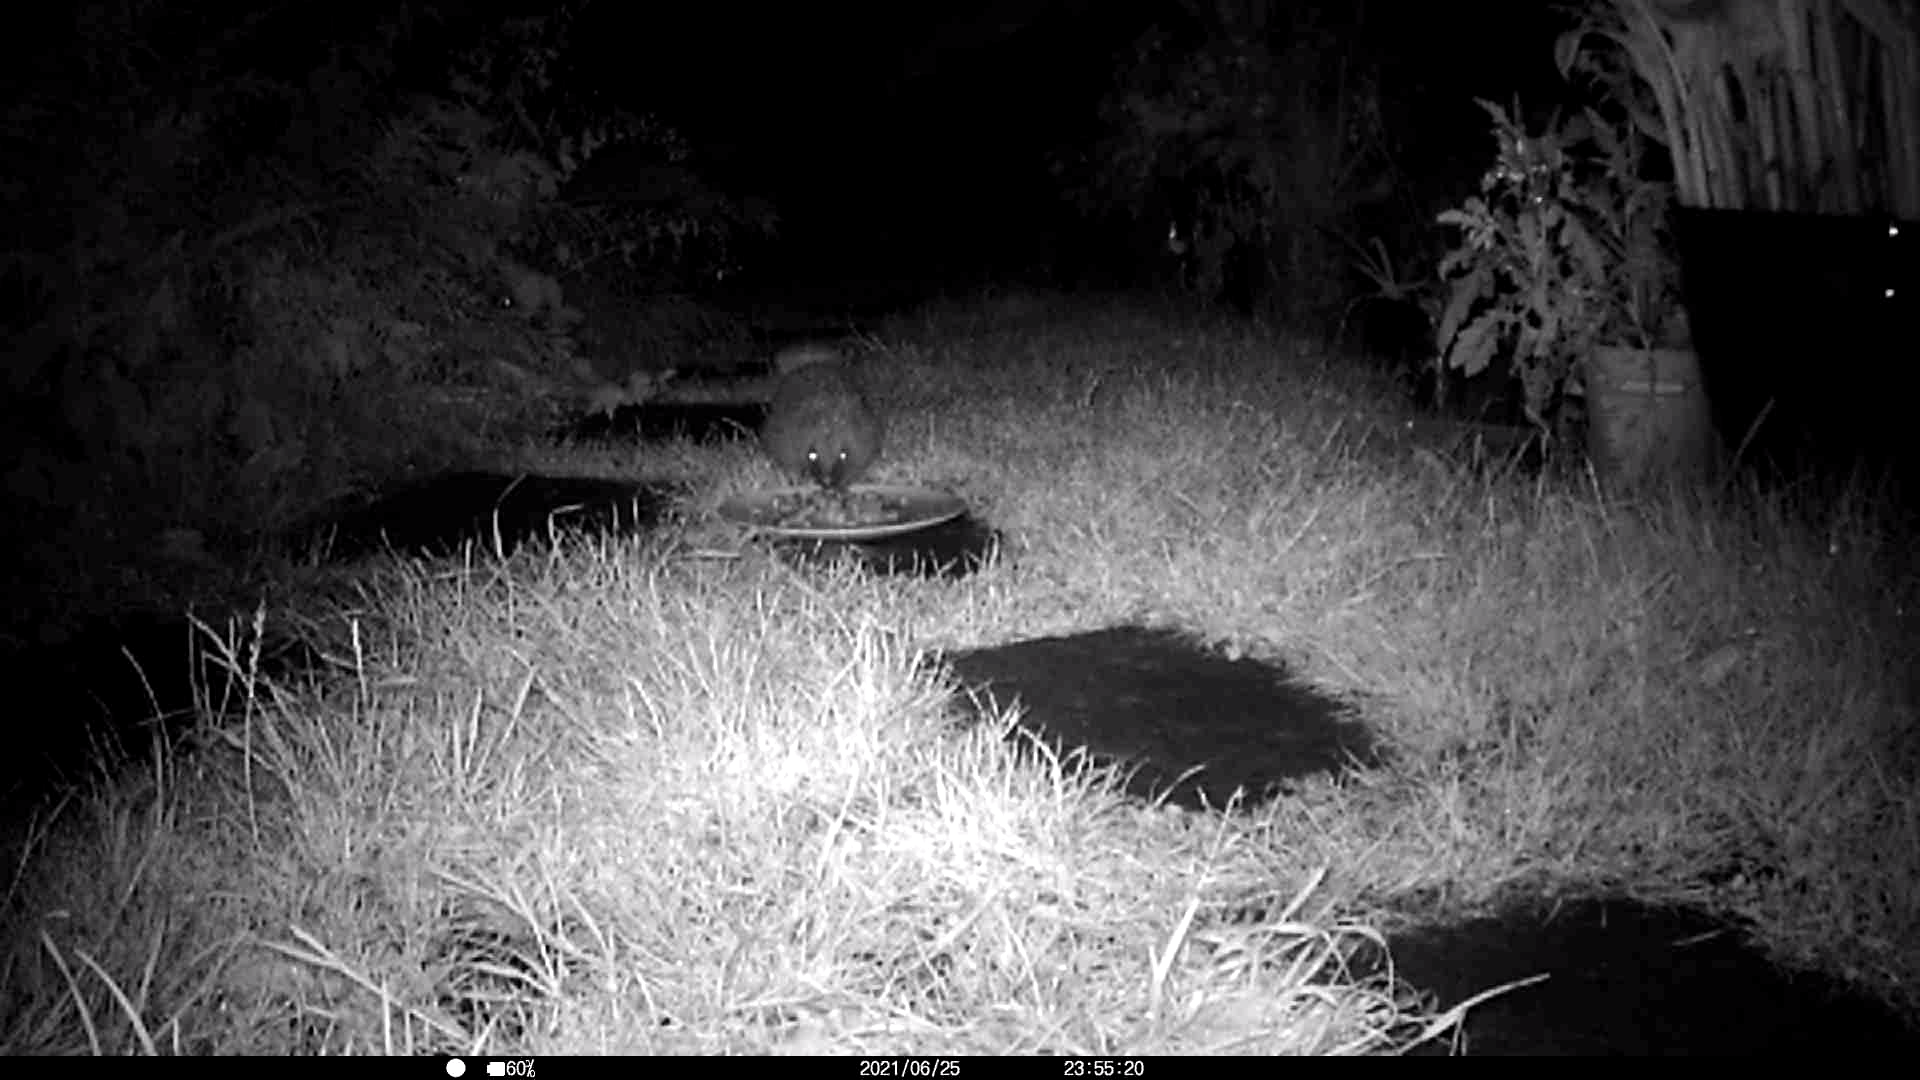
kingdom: Animalia
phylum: Chordata
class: Mammalia
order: Erinaceomorpha
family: Erinaceidae
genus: Erinaceus
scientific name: Erinaceus europaeus
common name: West european hedgehog
